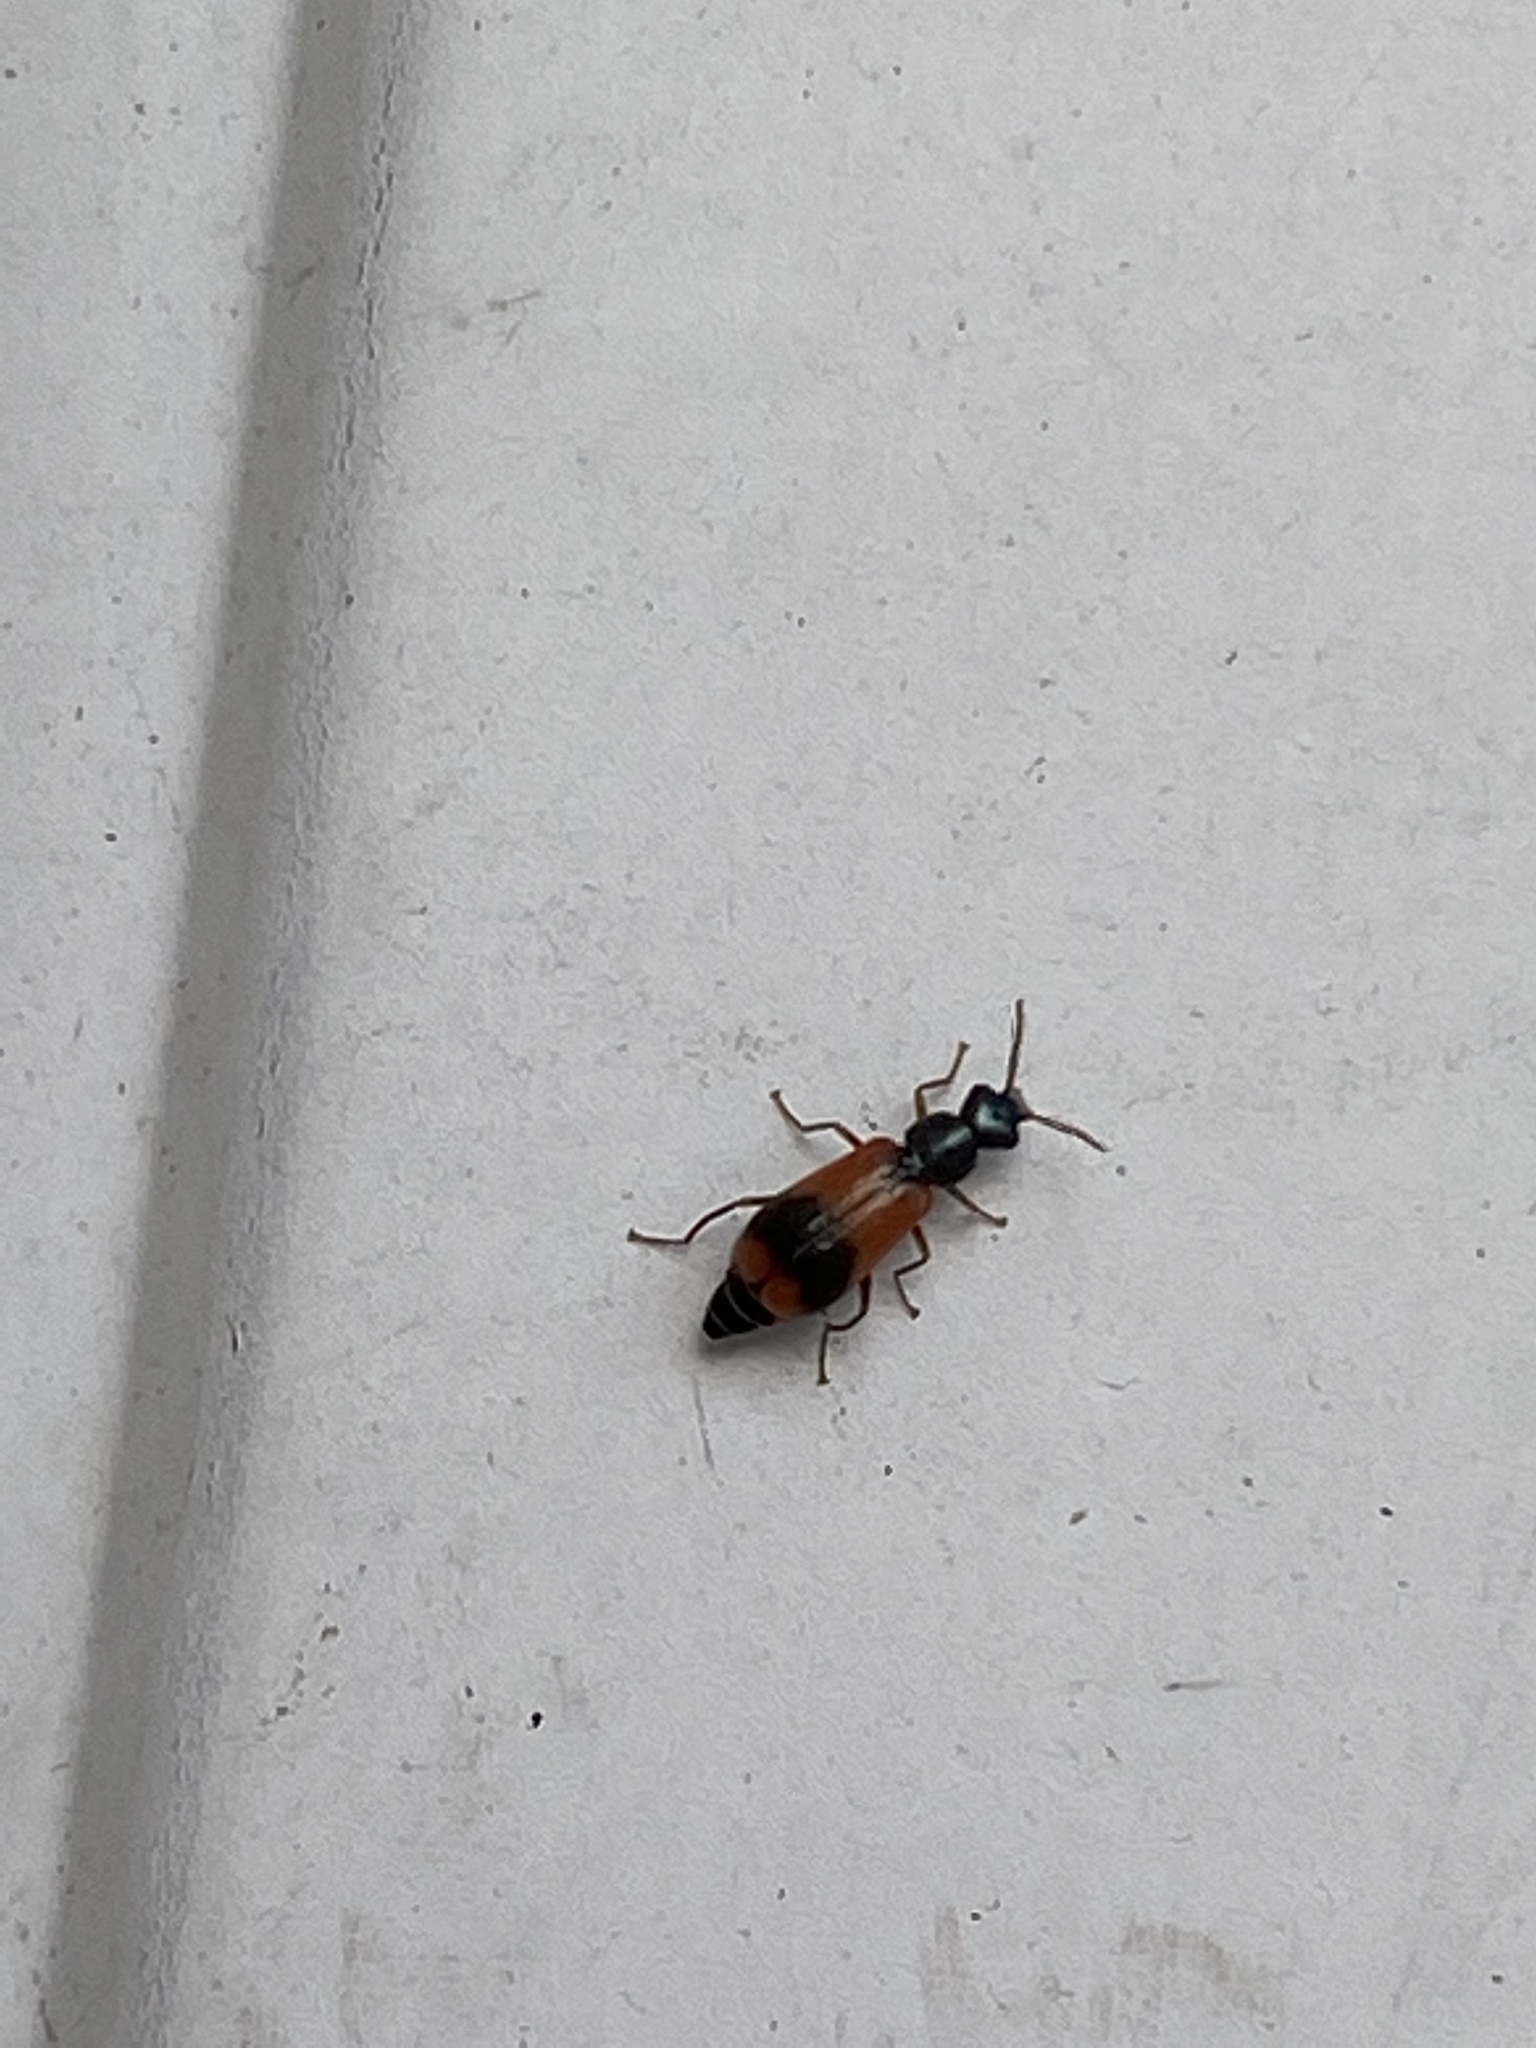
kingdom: Animalia
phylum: Arthropoda
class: Insecta
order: Coleoptera
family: Melyridae
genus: Anthocomus
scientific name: Anthocomus equestris
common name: Black-banded soft-winged flower beetle
